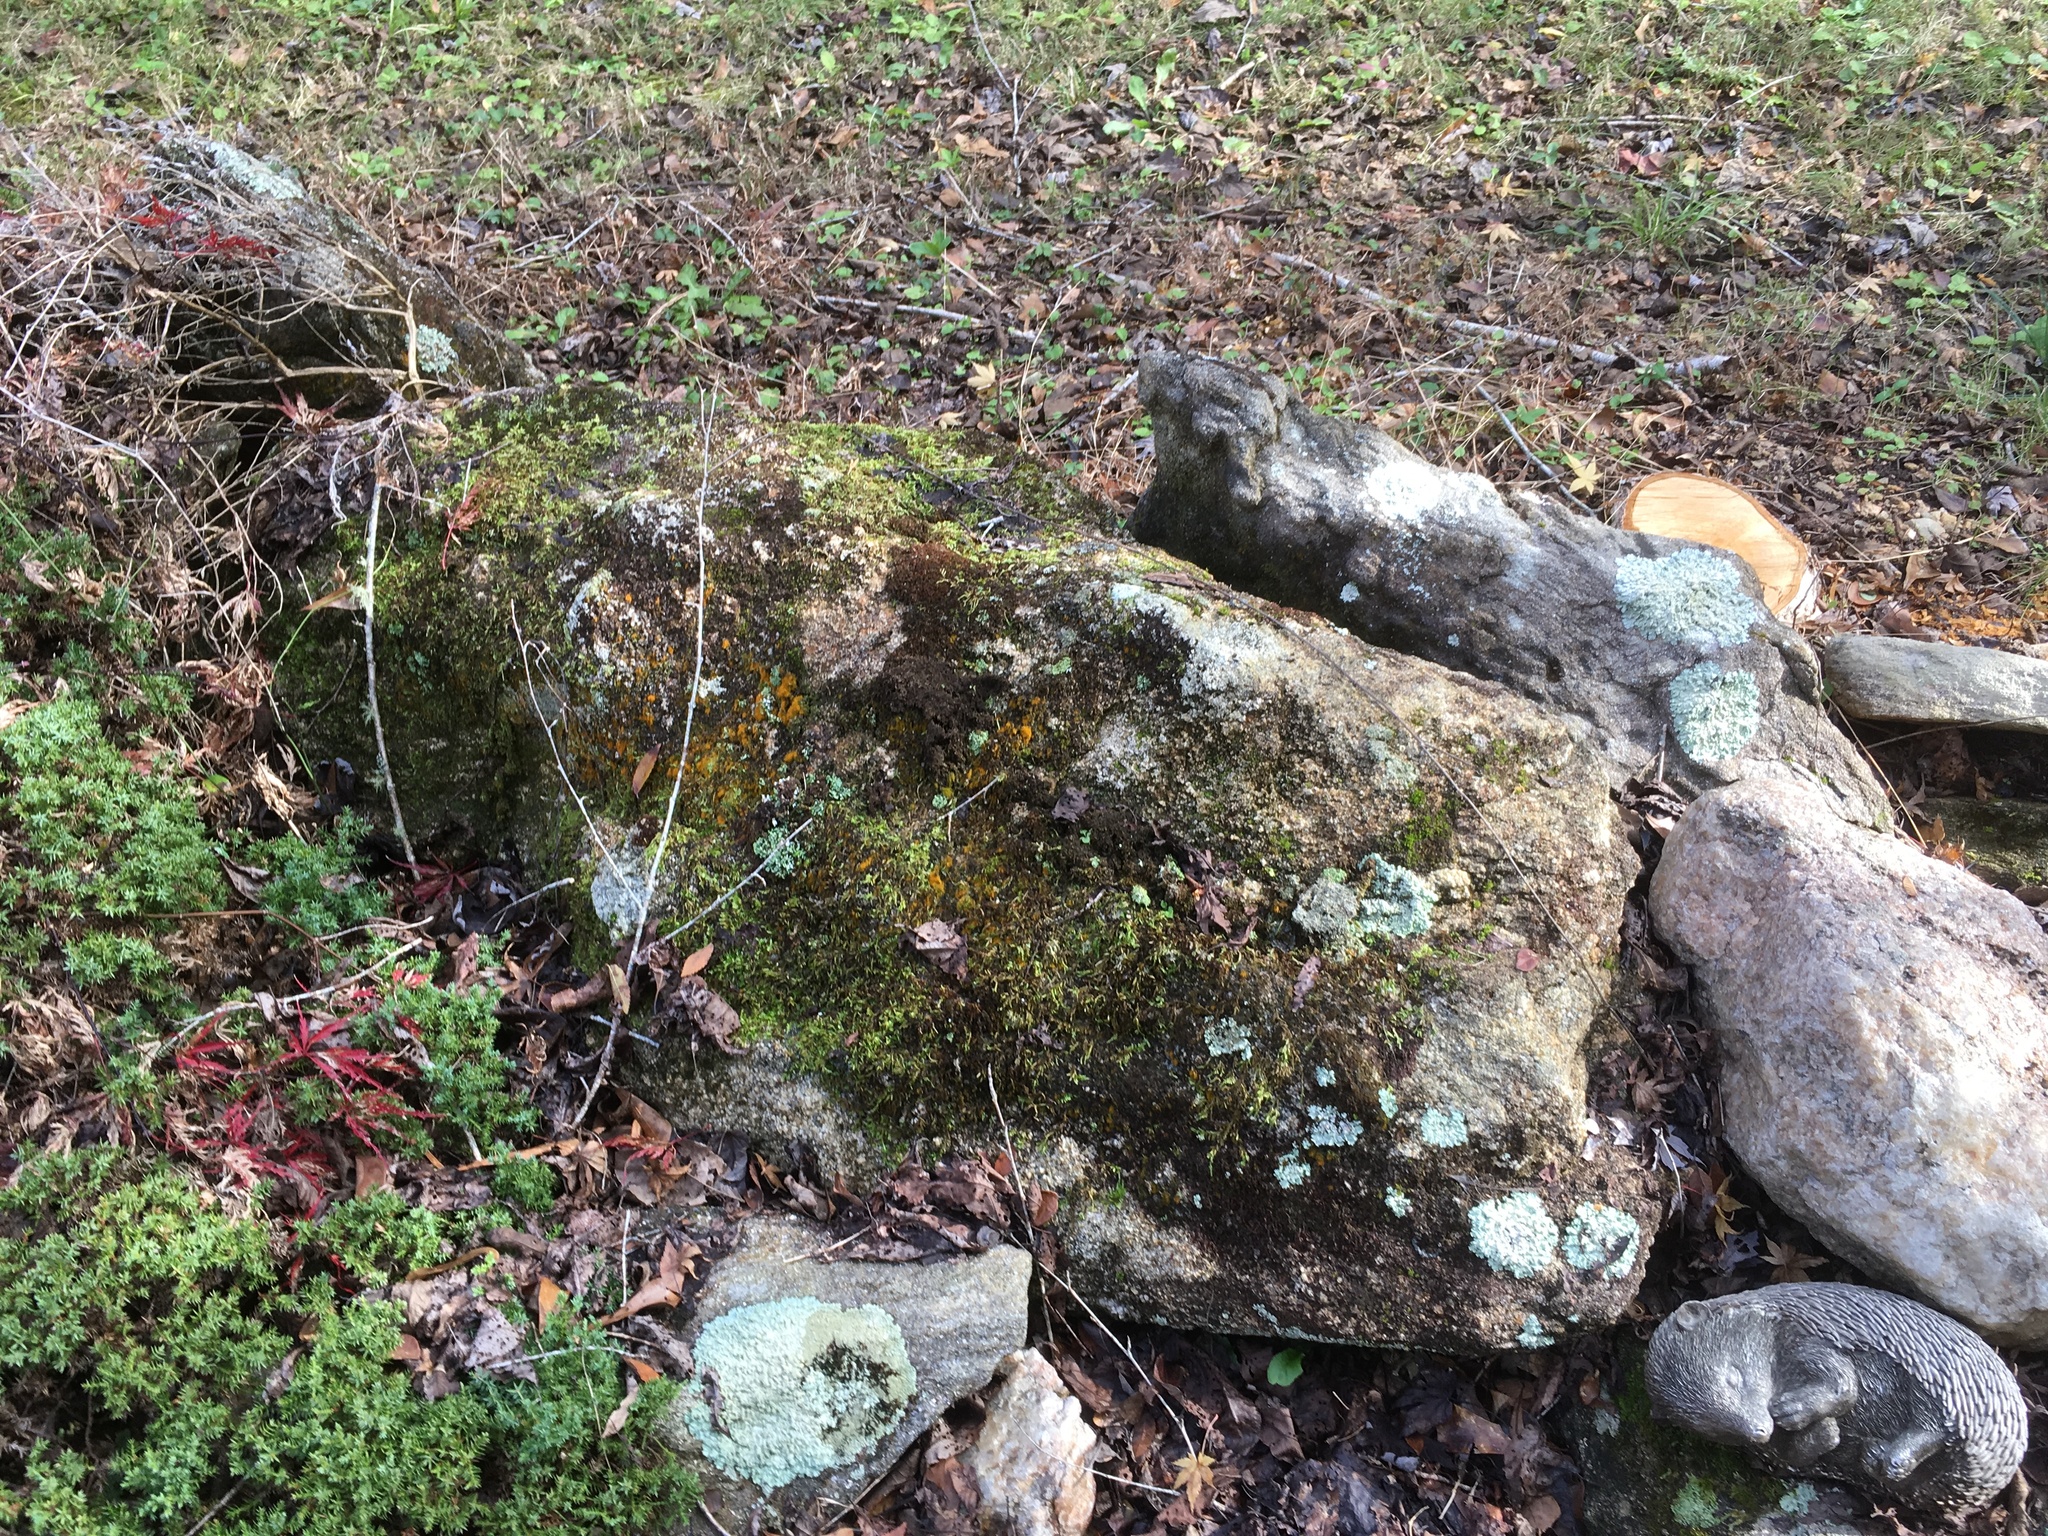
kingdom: Plantae
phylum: Chlorophyta
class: Ulvophyceae
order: Trentepohliales
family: Trentepohliaceae
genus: Trentepohlia
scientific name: Trentepohlia
